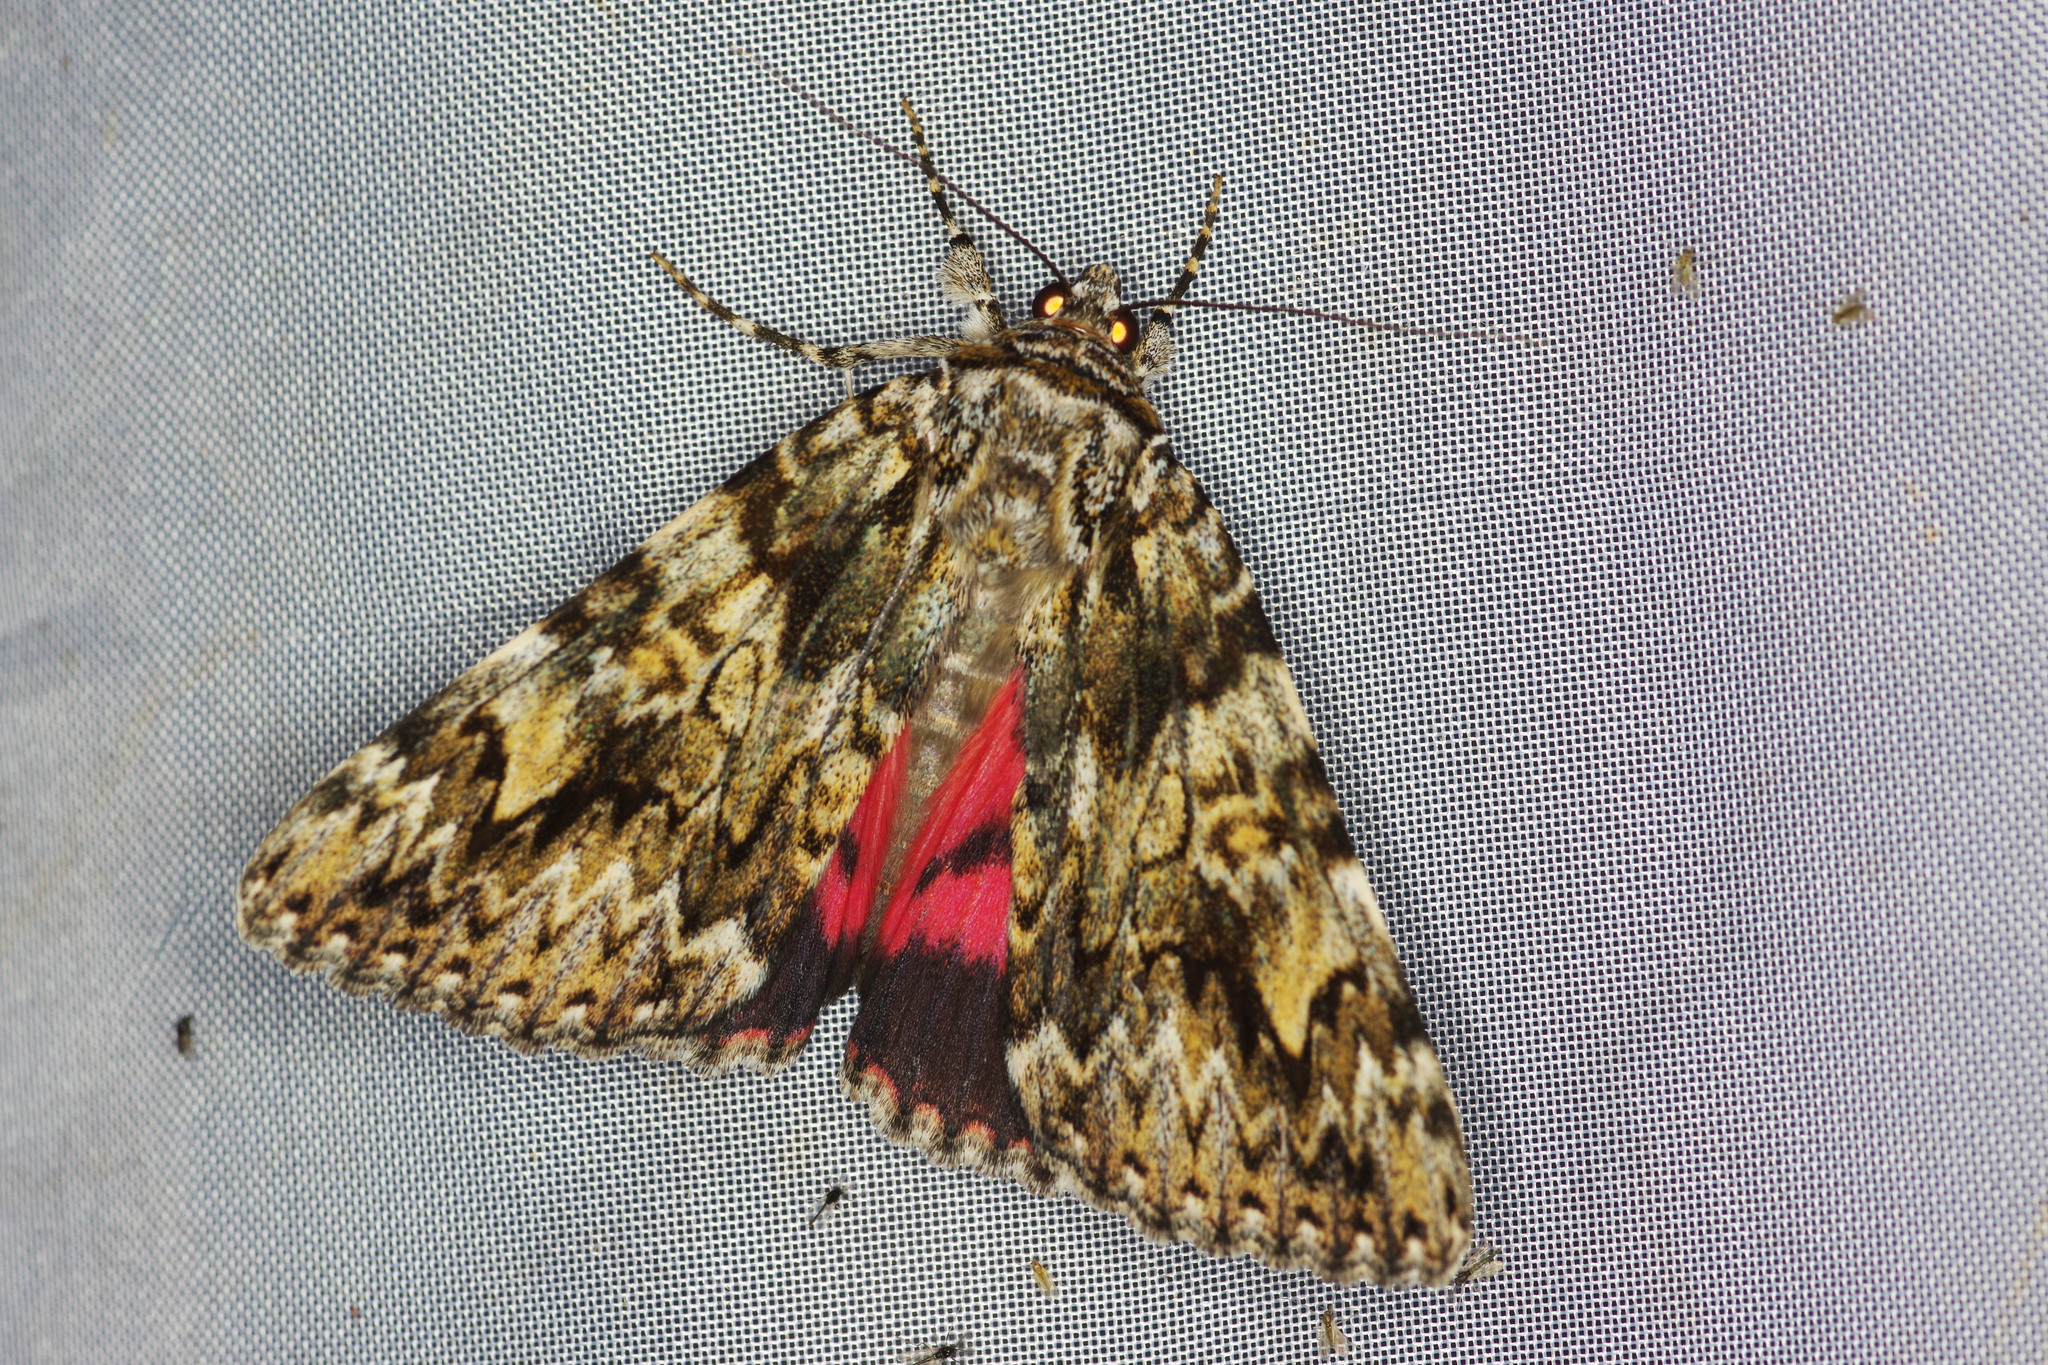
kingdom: Animalia
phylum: Arthropoda
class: Insecta
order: Lepidoptera
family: Erebidae
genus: Catocala
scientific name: Catocala promissa
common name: Light crimson underwing
